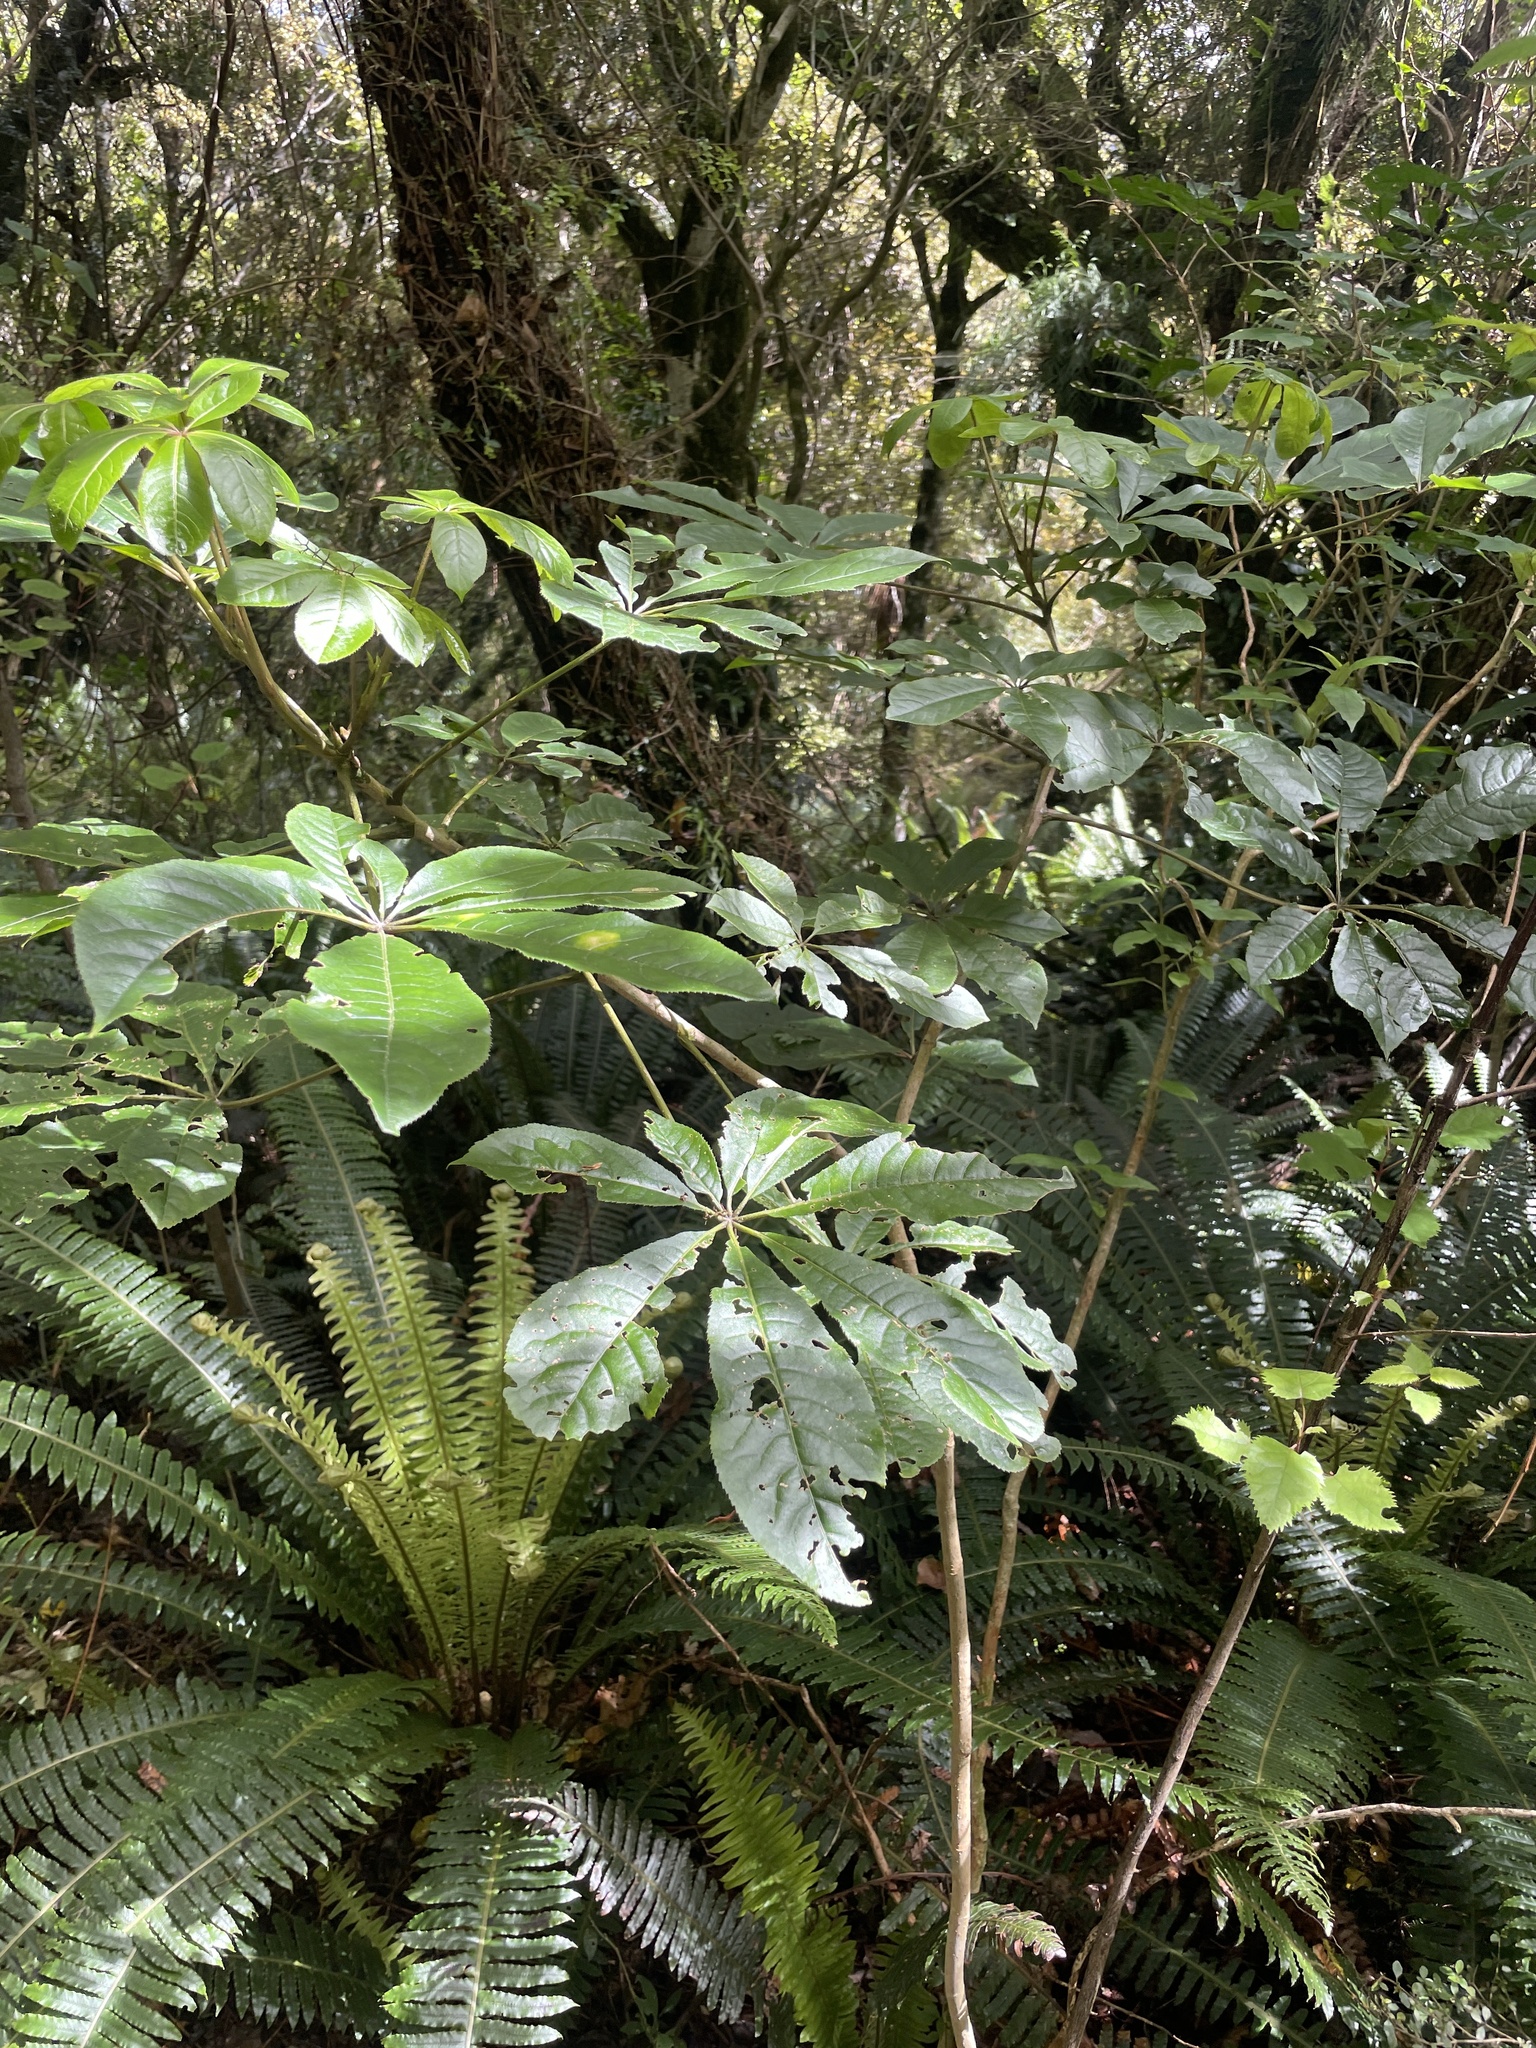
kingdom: Plantae
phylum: Tracheophyta
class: Magnoliopsida
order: Apiales
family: Araliaceae
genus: Schefflera
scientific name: Schefflera digitata
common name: Pate
